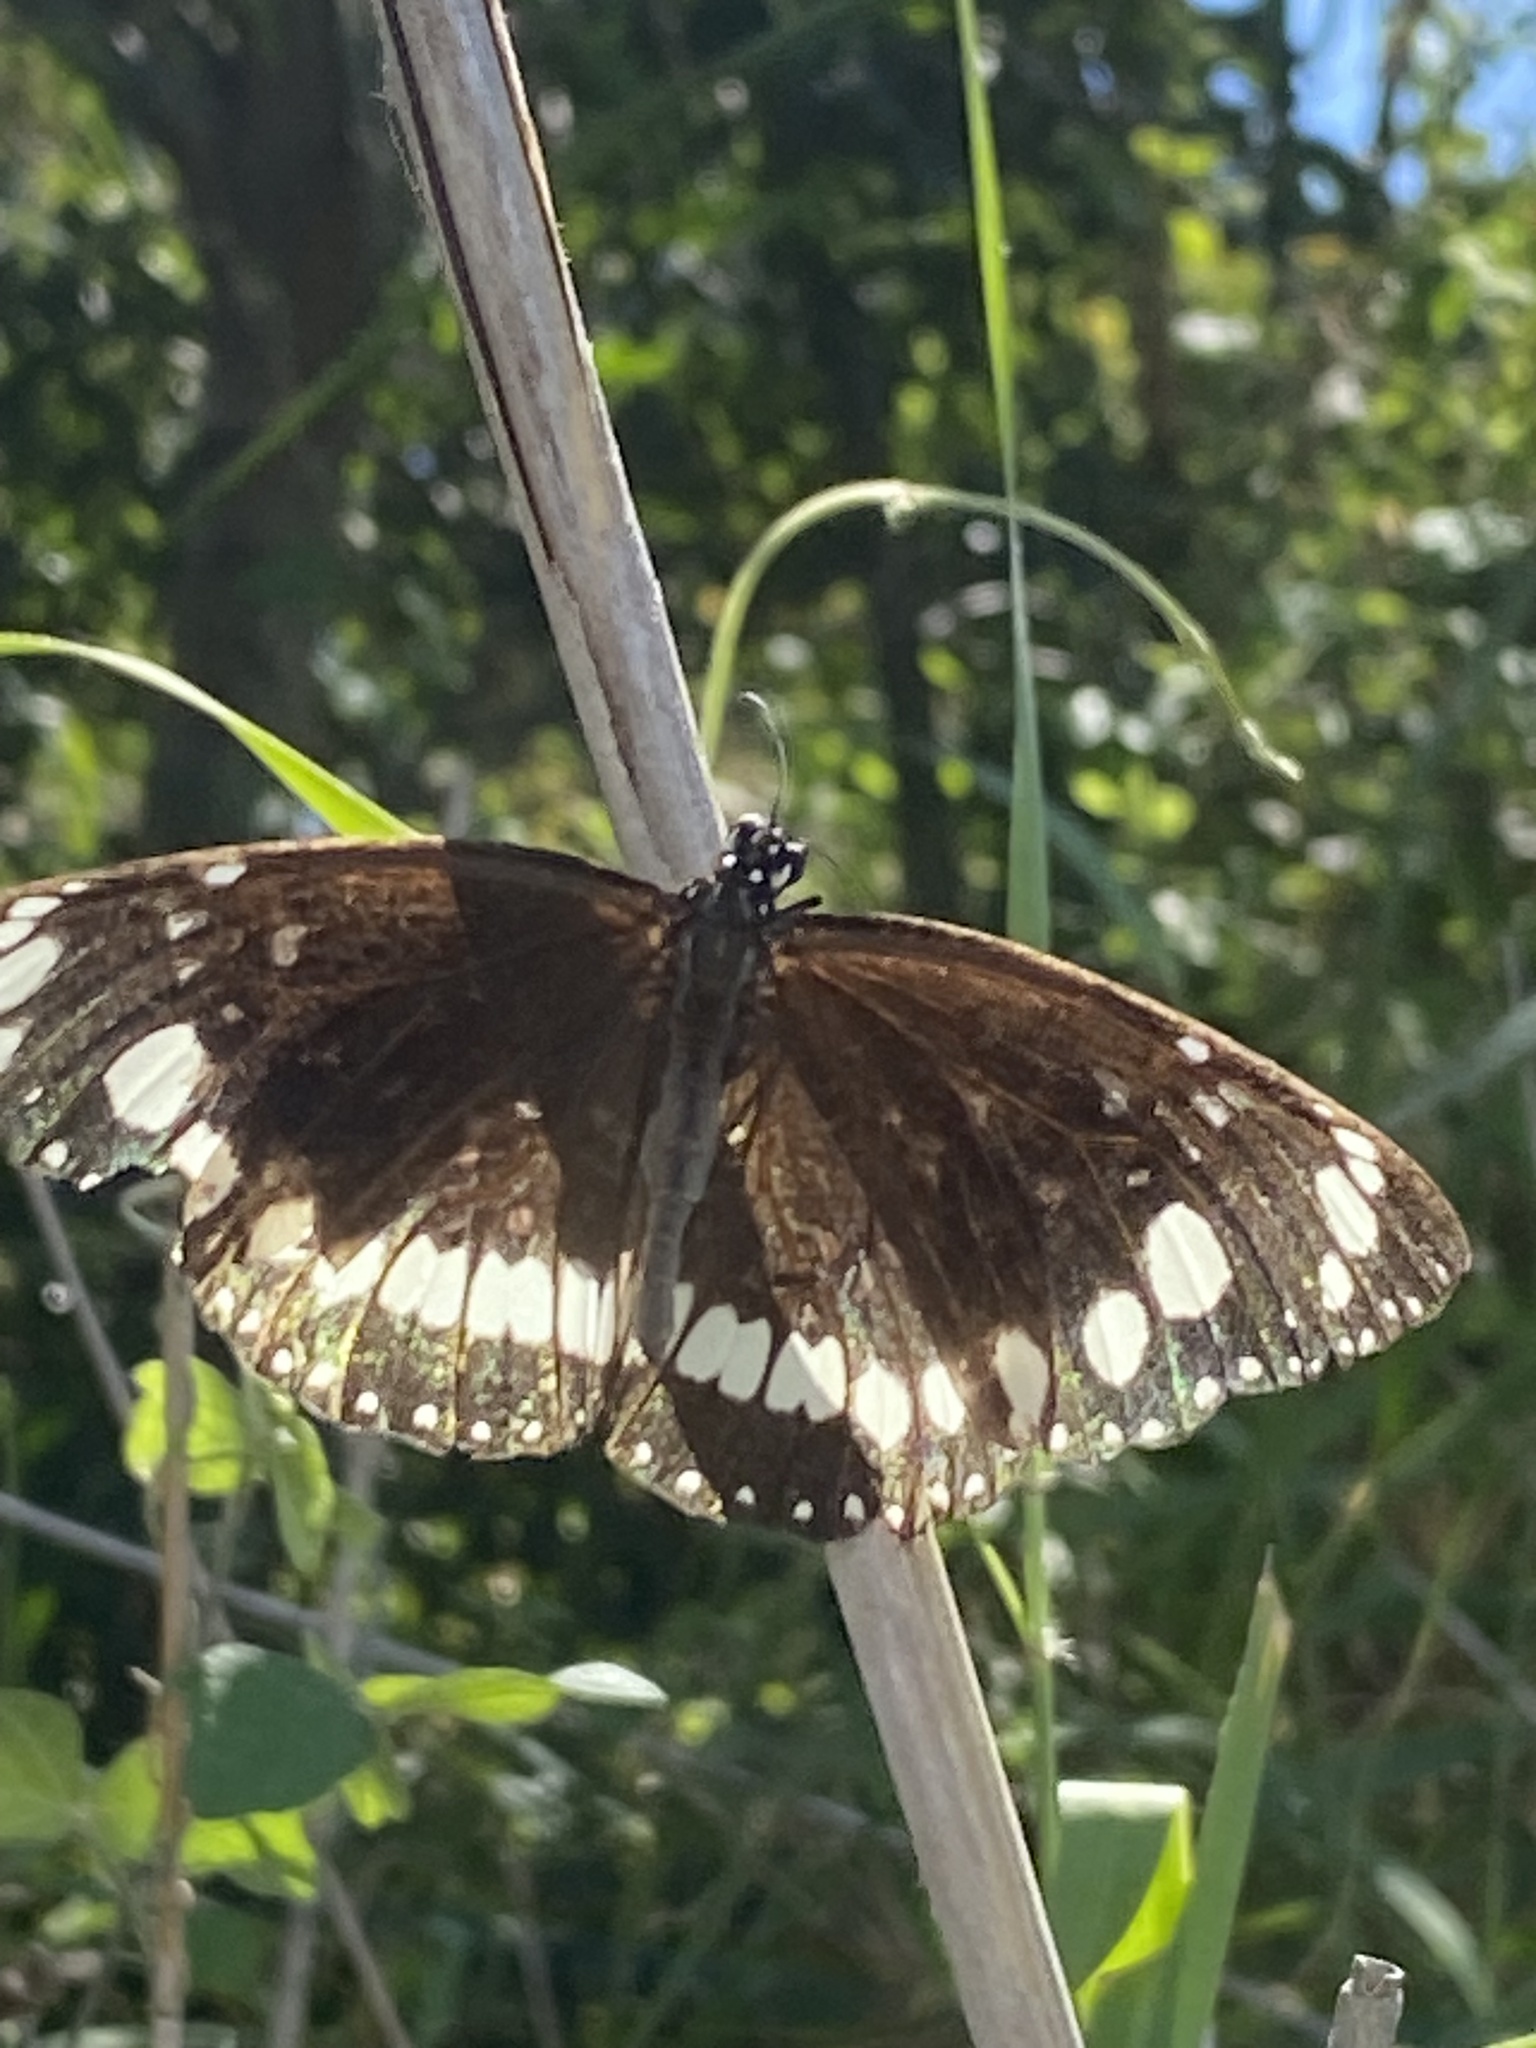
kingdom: Animalia
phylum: Arthropoda
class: Insecta
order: Lepidoptera
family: Nymphalidae
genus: Euploea
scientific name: Euploea core
